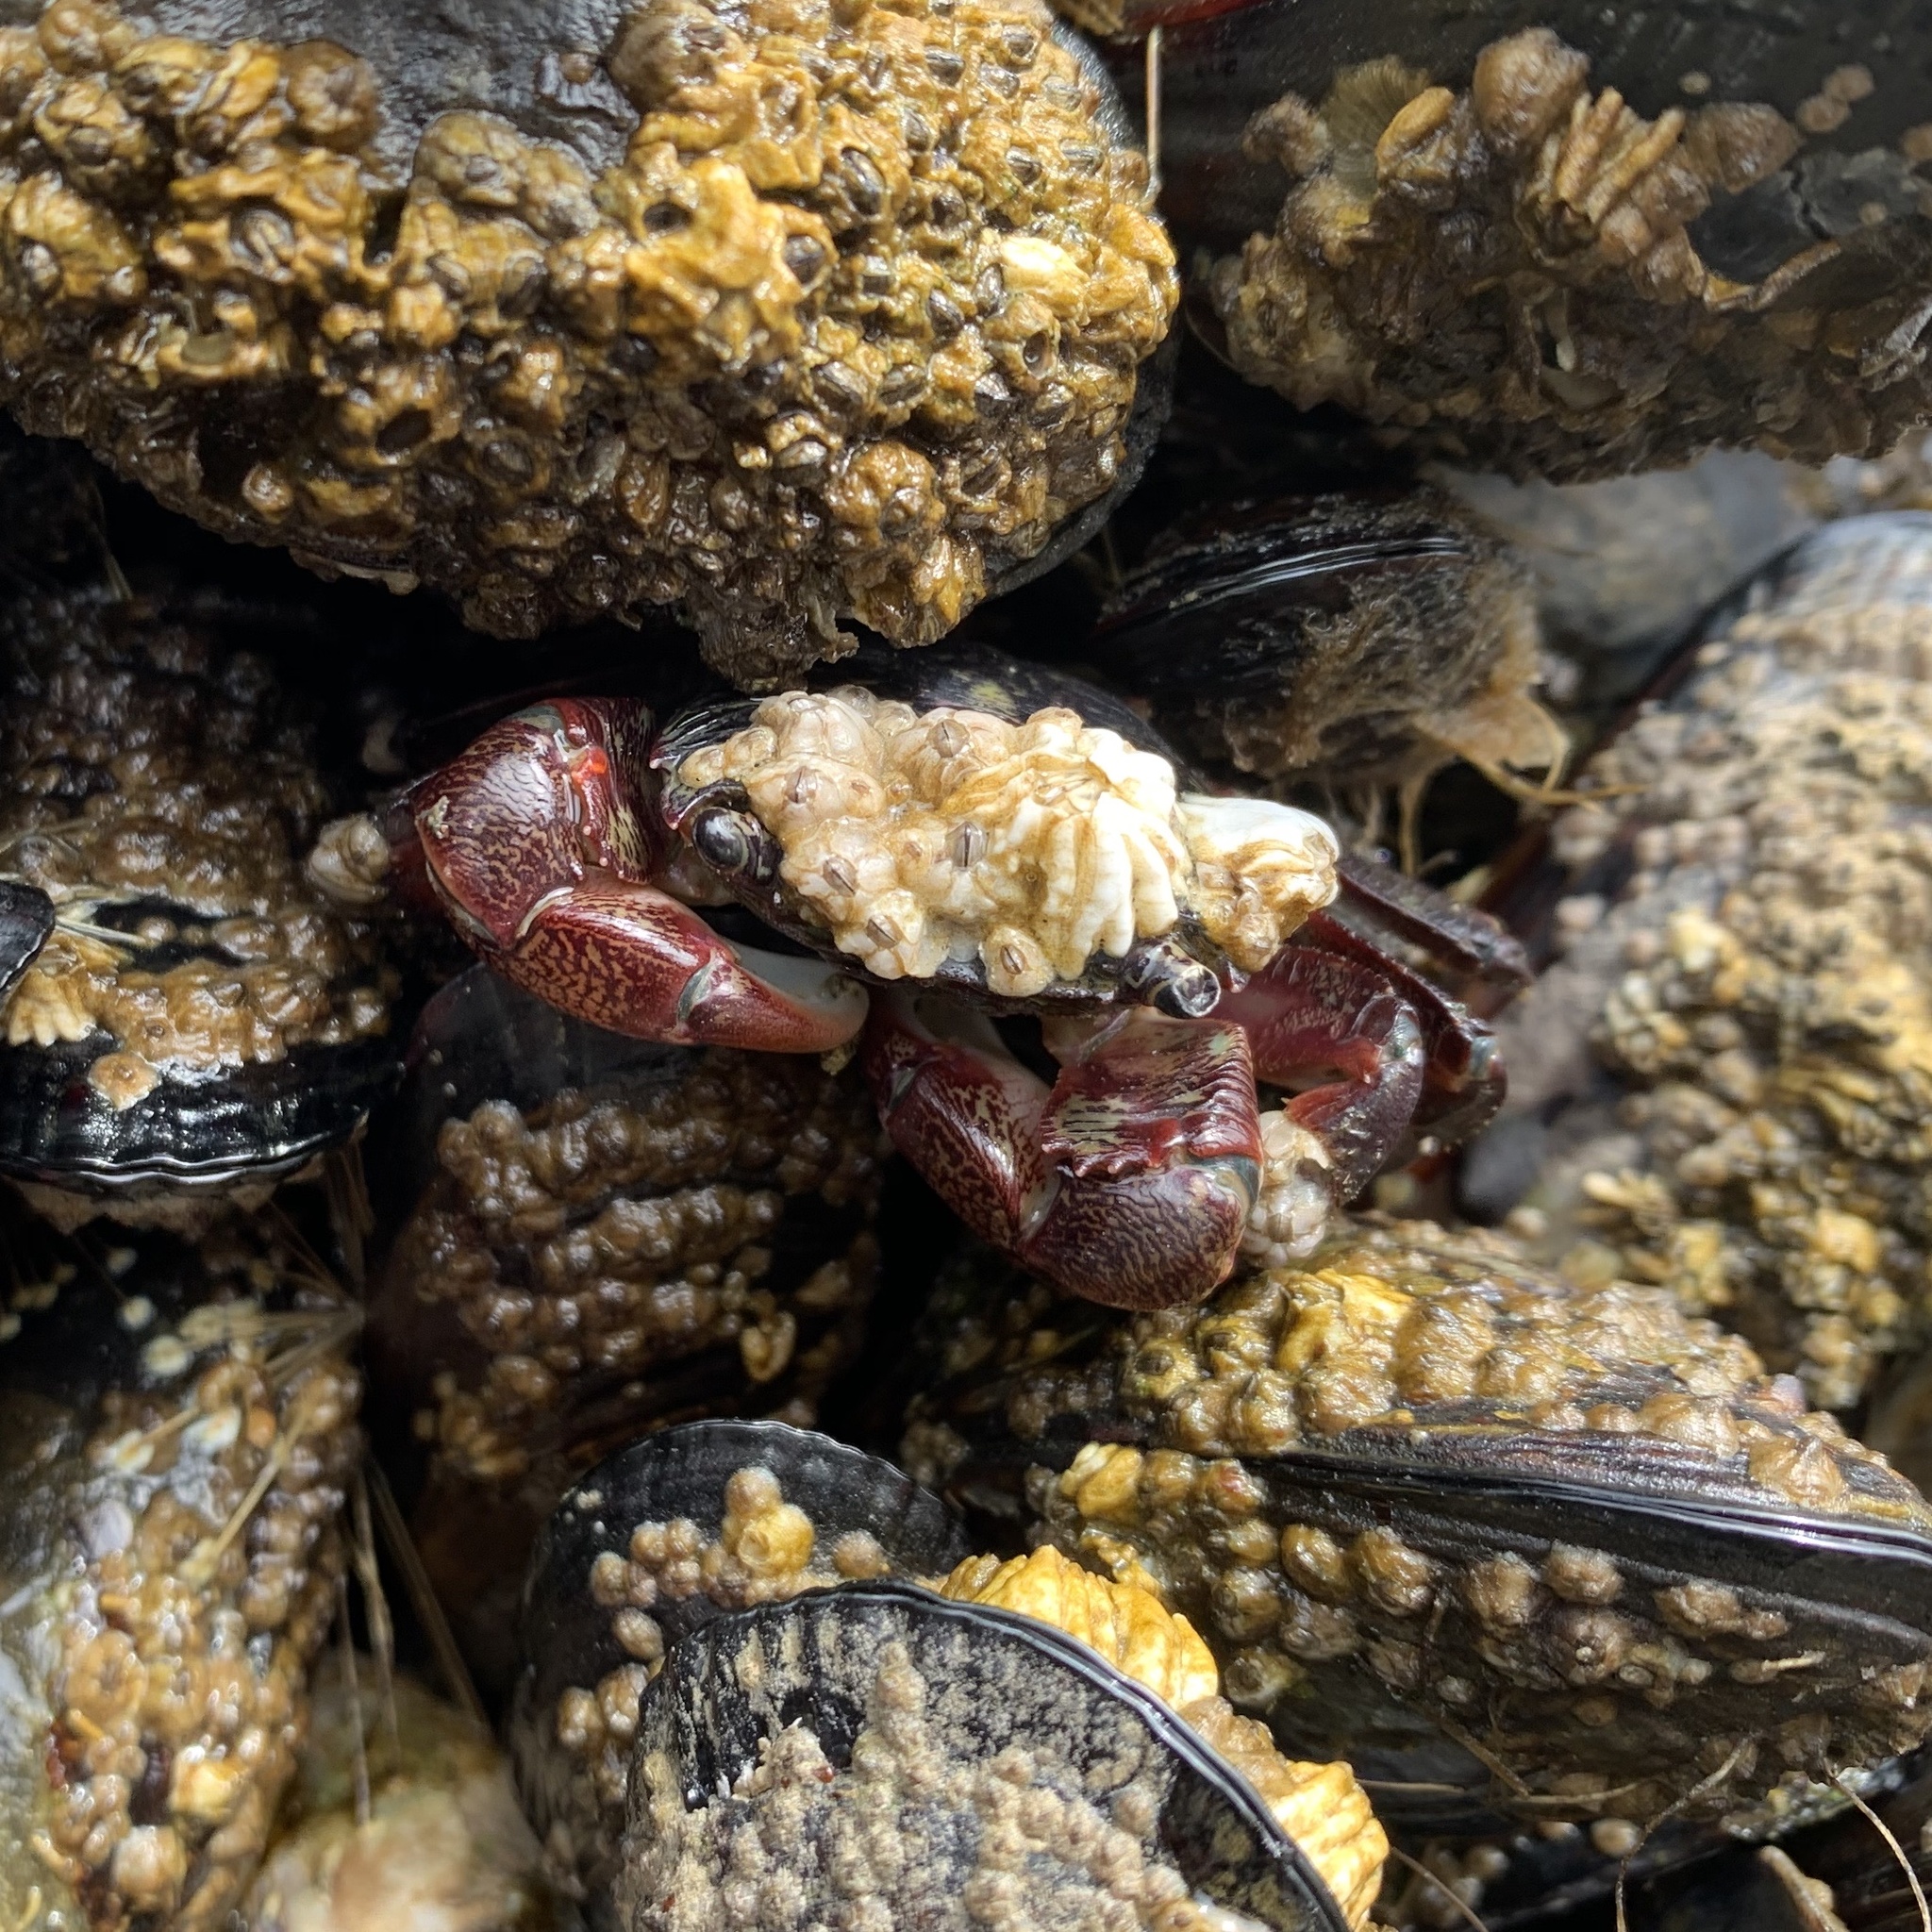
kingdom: Animalia
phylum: Arthropoda
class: Malacostraca
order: Decapoda
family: Grapsidae
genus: Pachygrapsus
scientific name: Pachygrapsus crassipes
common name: Striped shore crab
